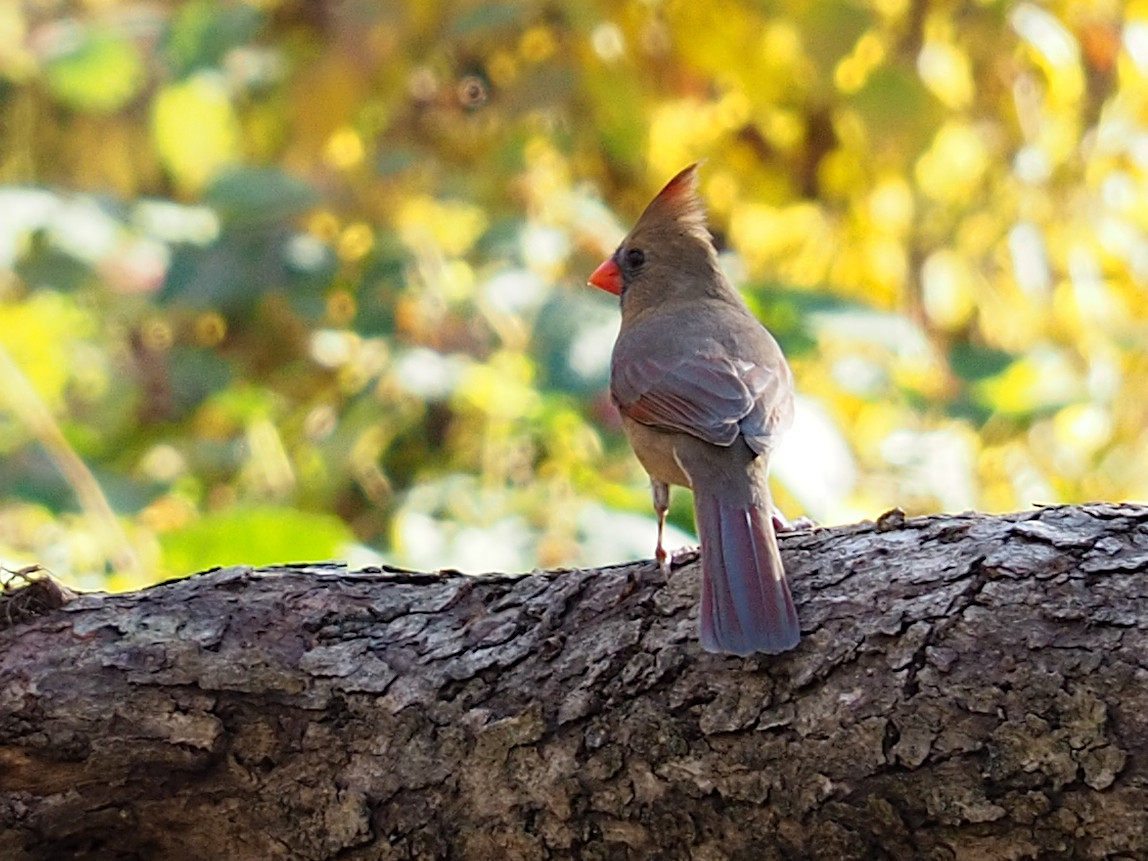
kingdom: Animalia
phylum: Chordata
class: Aves
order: Passeriformes
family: Cardinalidae
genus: Cardinalis
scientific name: Cardinalis cardinalis
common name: Northern cardinal
